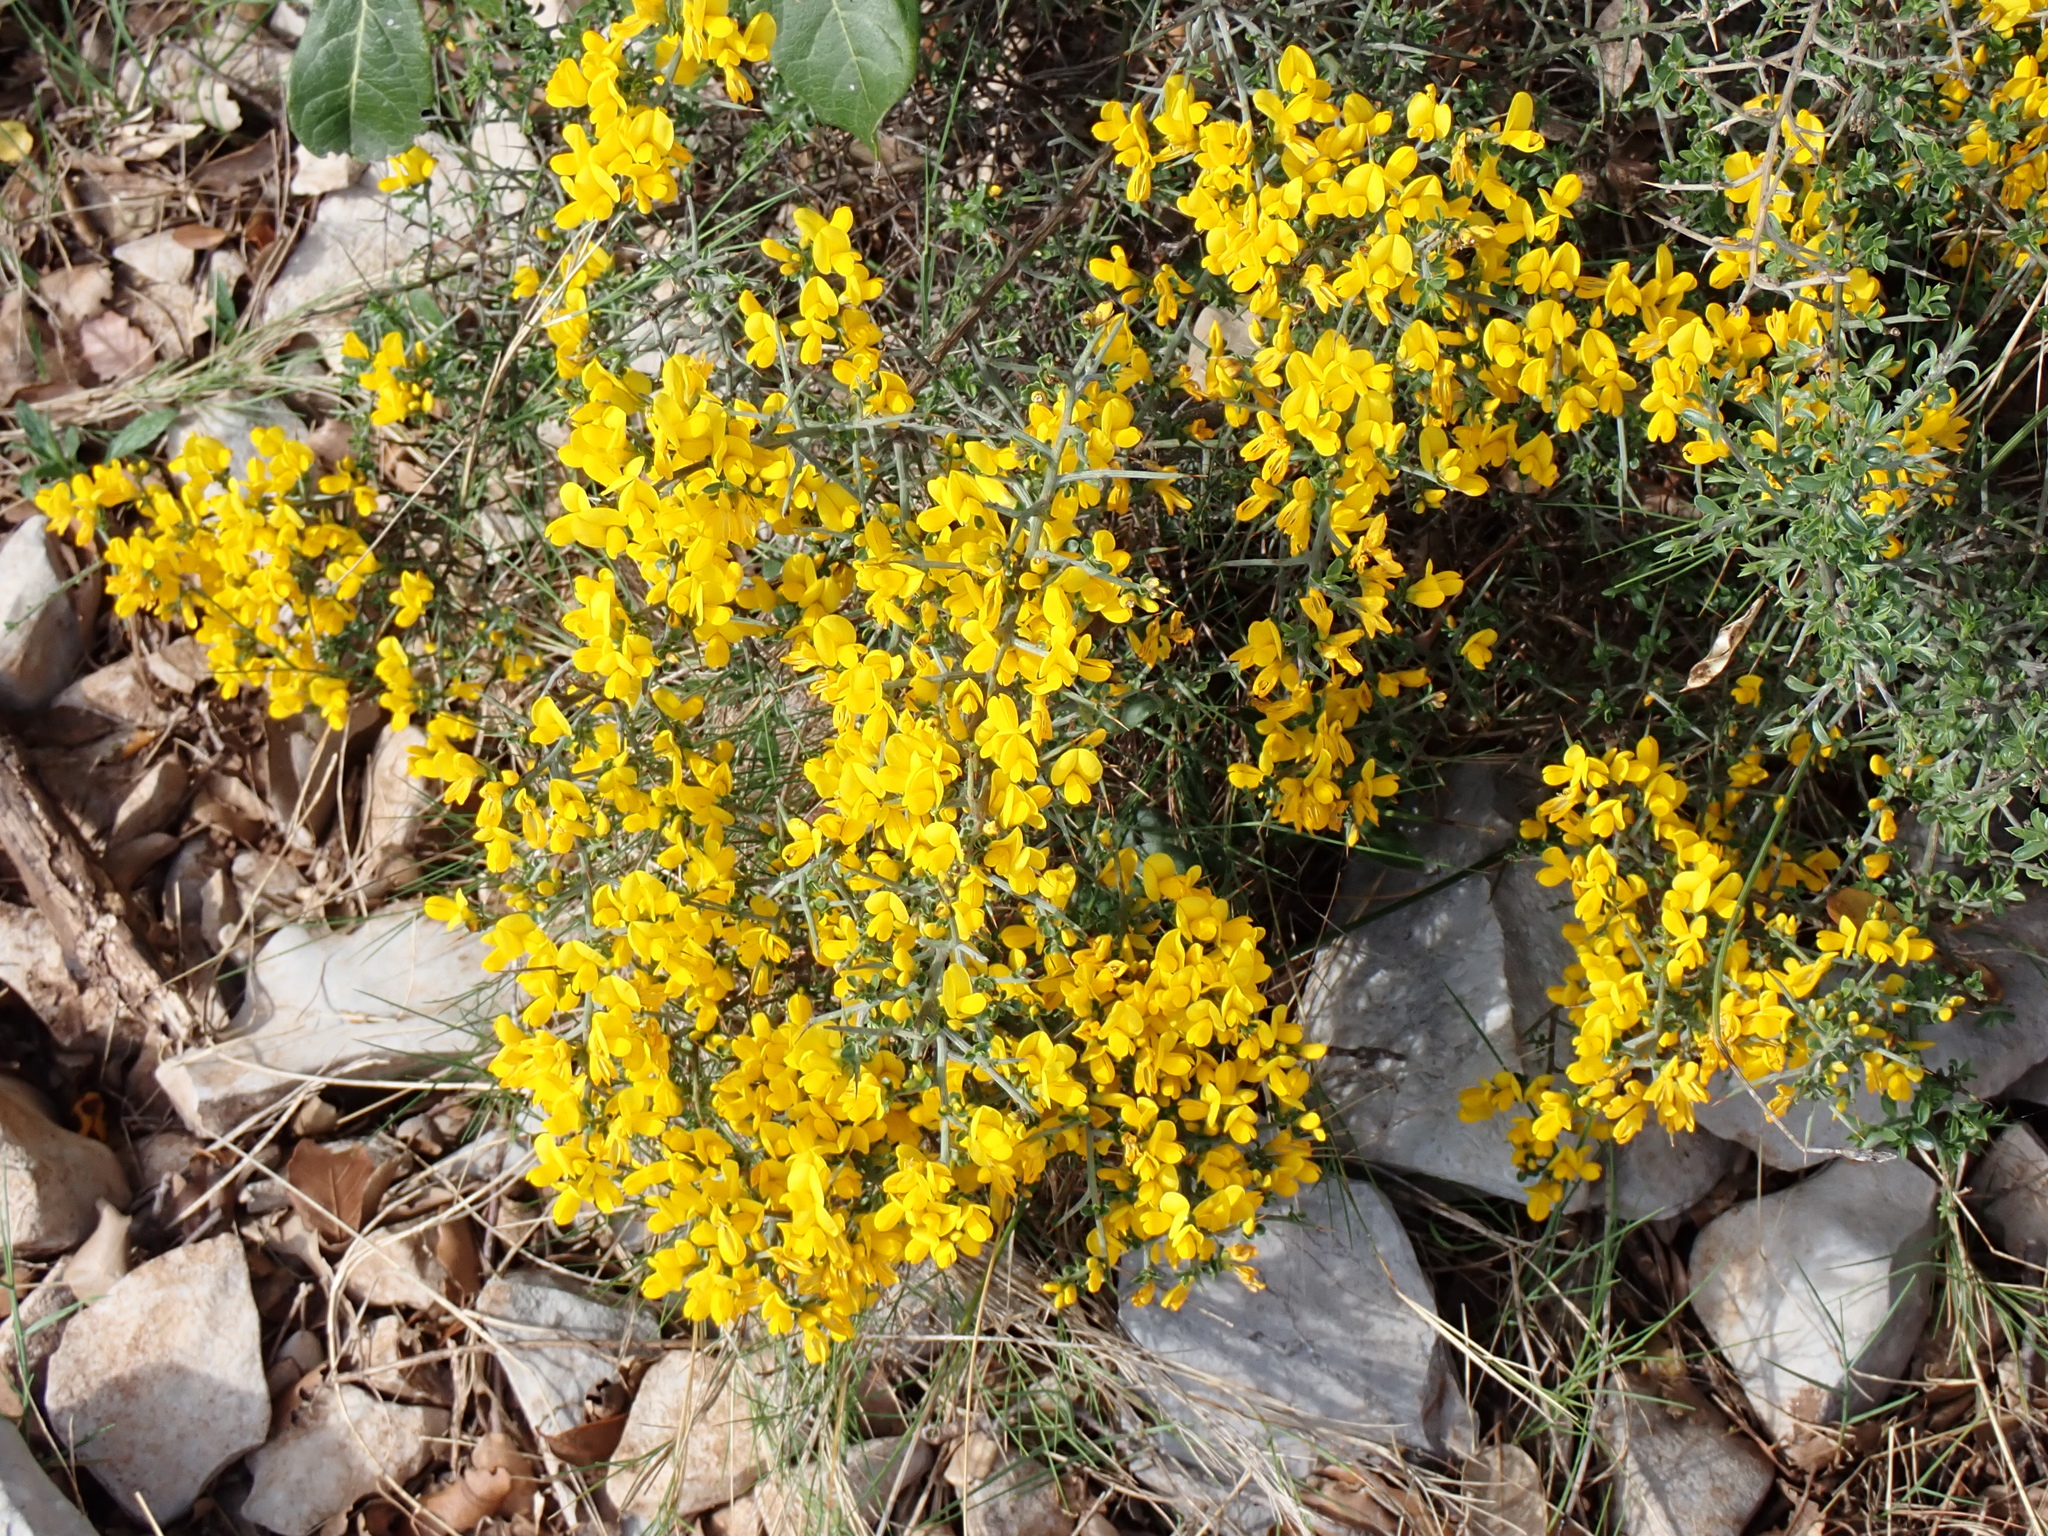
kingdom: Plantae
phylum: Tracheophyta
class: Magnoliopsida
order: Fabales
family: Fabaceae
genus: Genista
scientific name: Genista scorpius
